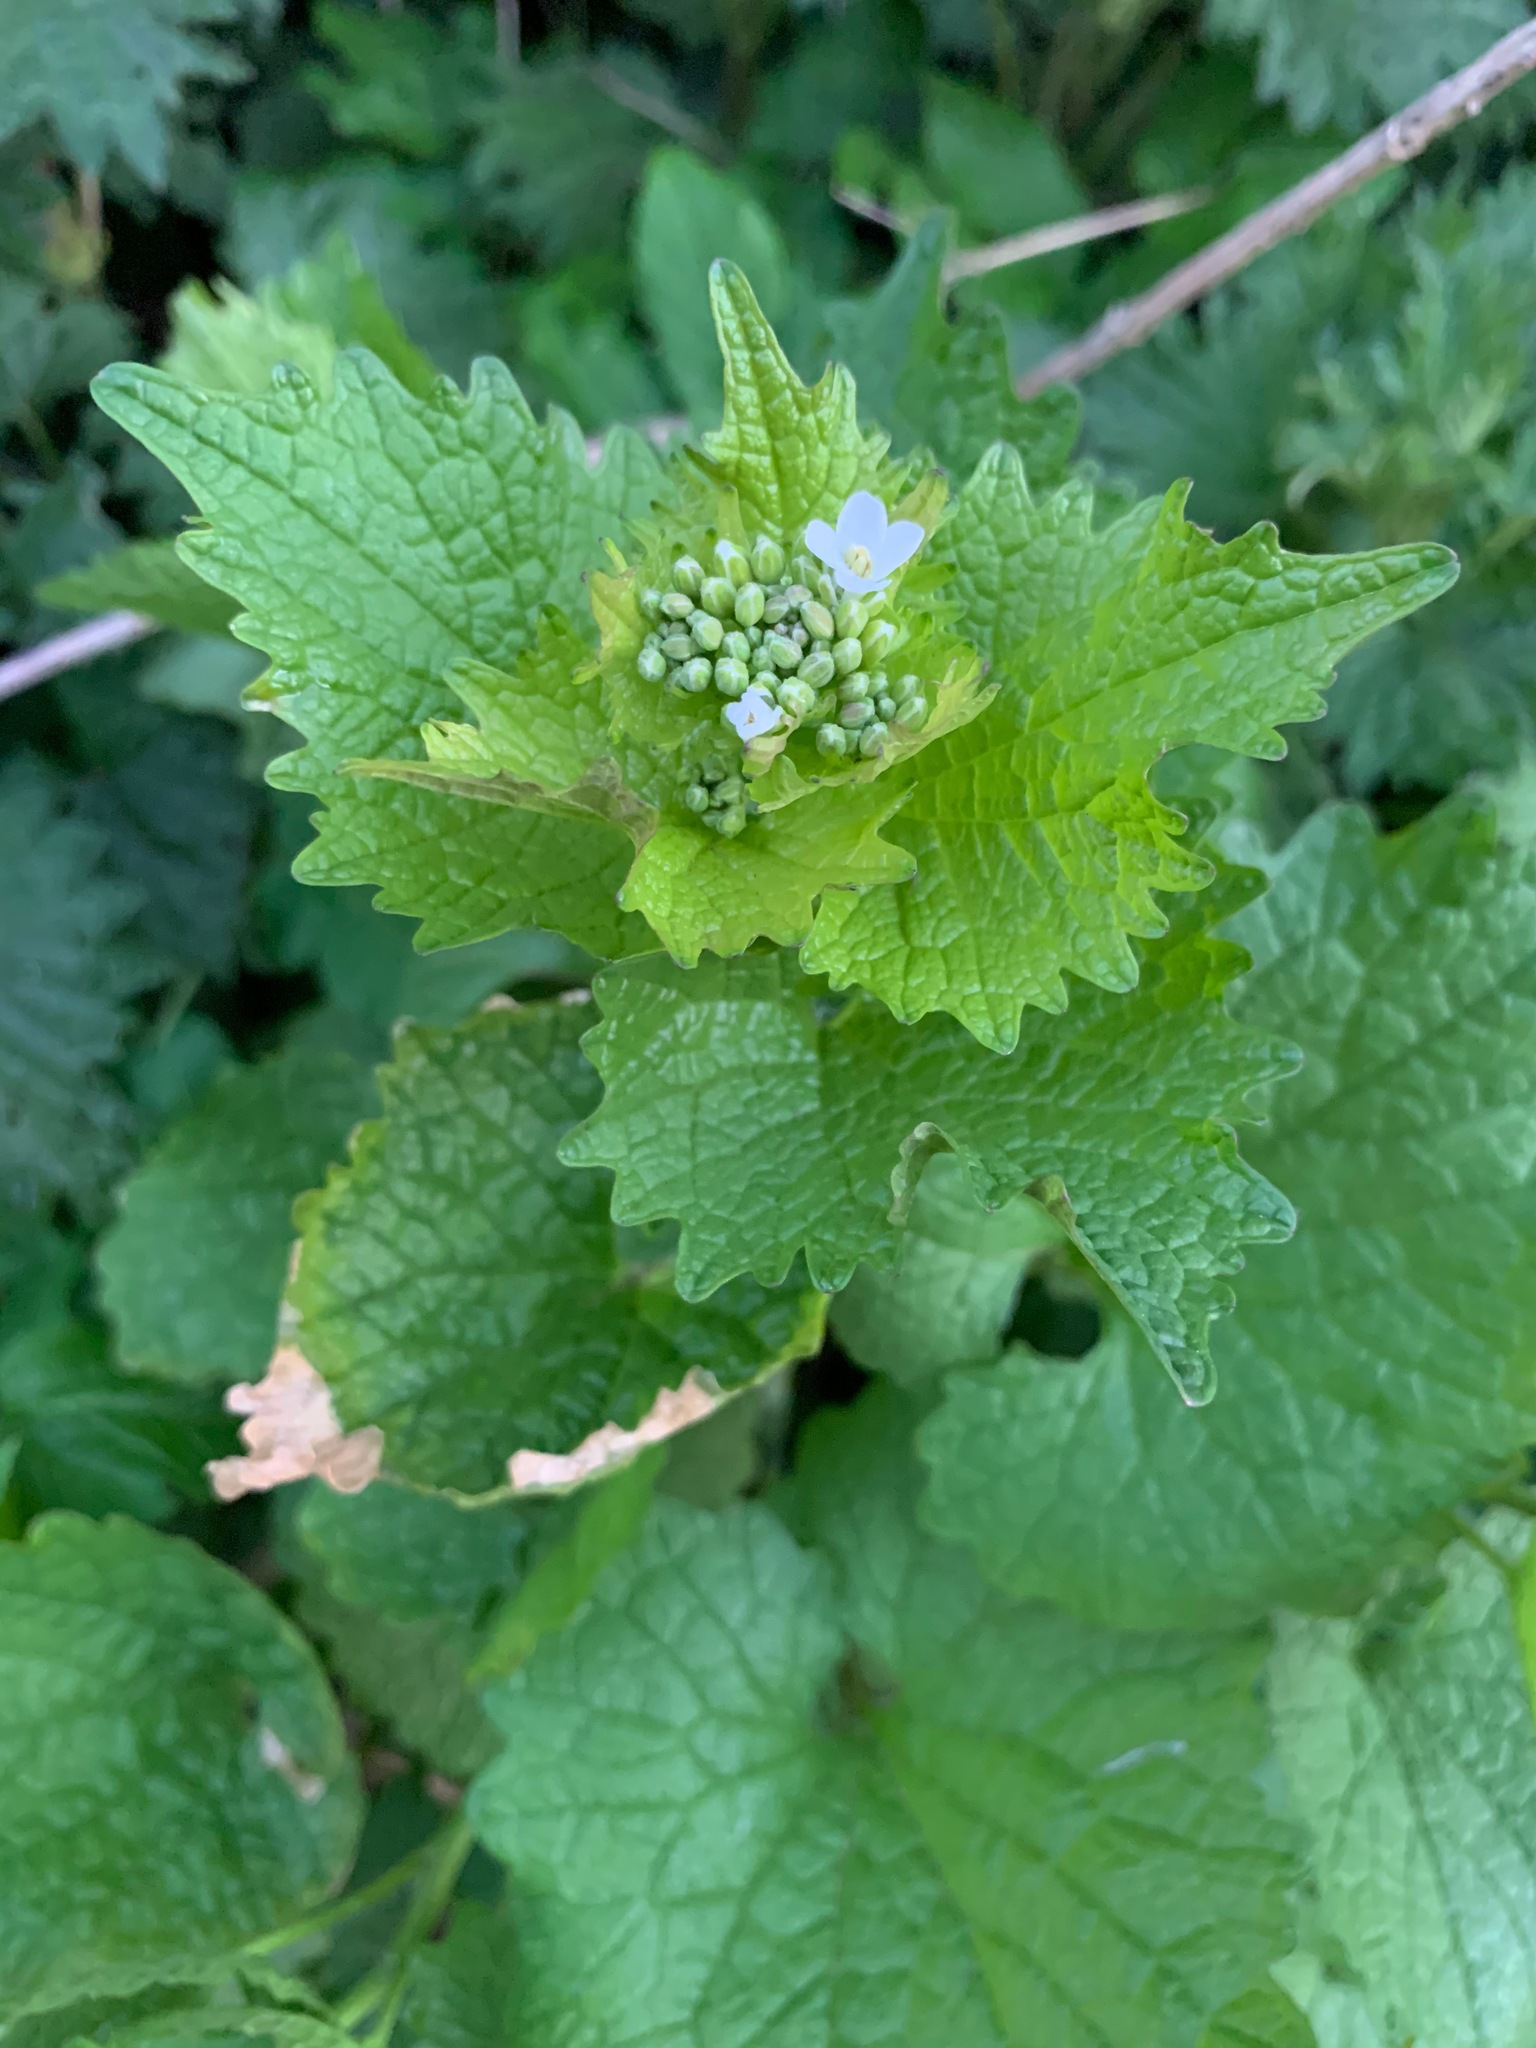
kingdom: Plantae
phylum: Tracheophyta
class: Magnoliopsida
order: Brassicales
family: Brassicaceae
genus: Alliaria
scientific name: Alliaria petiolata
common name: Garlic mustard
